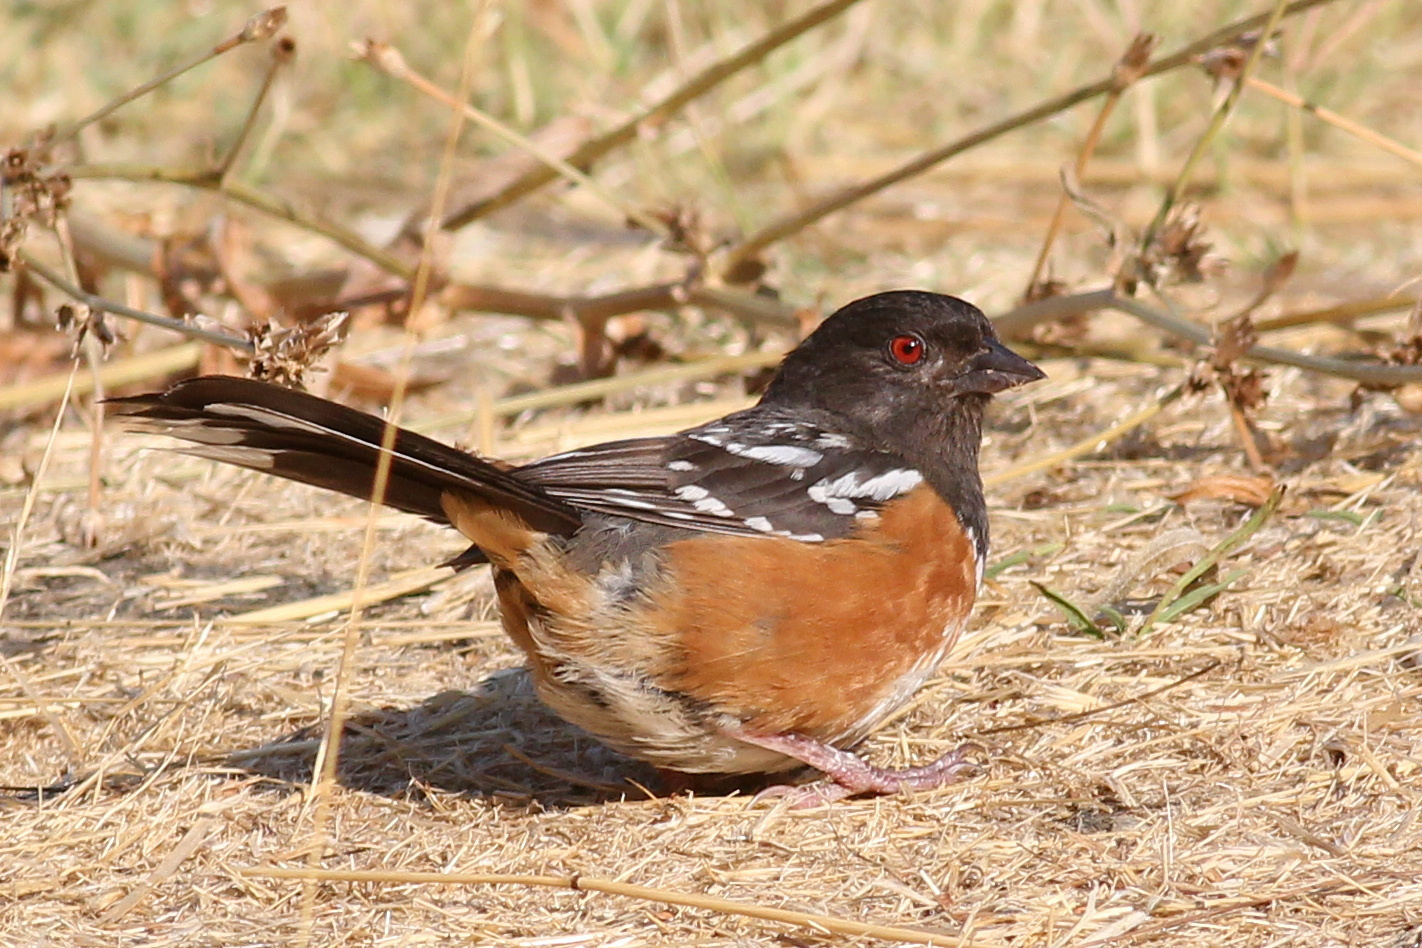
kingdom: Animalia
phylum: Chordata
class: Aves
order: Passeriformes
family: Passerellidae
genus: Pipilo
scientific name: Pipilo maculatus
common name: Spotted towhee
